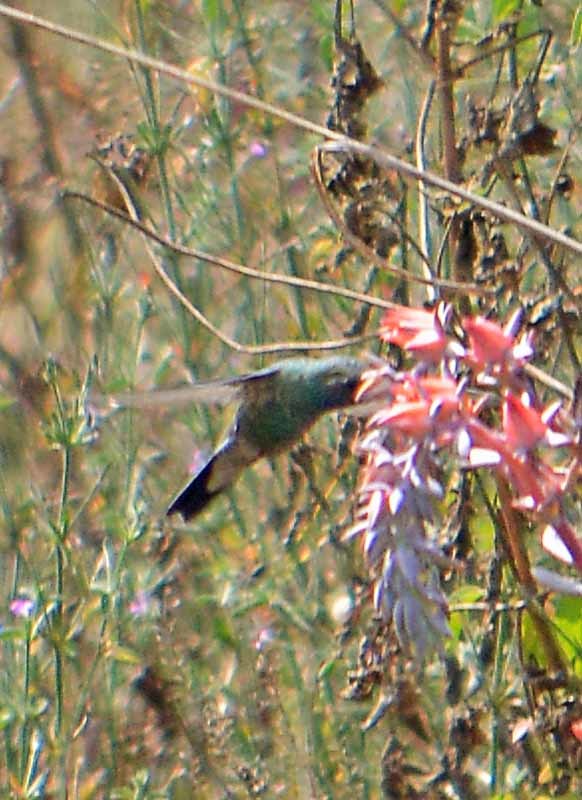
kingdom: Animalia
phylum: Chordata
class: Aves
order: Apodiformes
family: Trochilidae
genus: Cynanthus
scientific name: Cynanthus latirostris
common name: Broad-billed hummingbird
